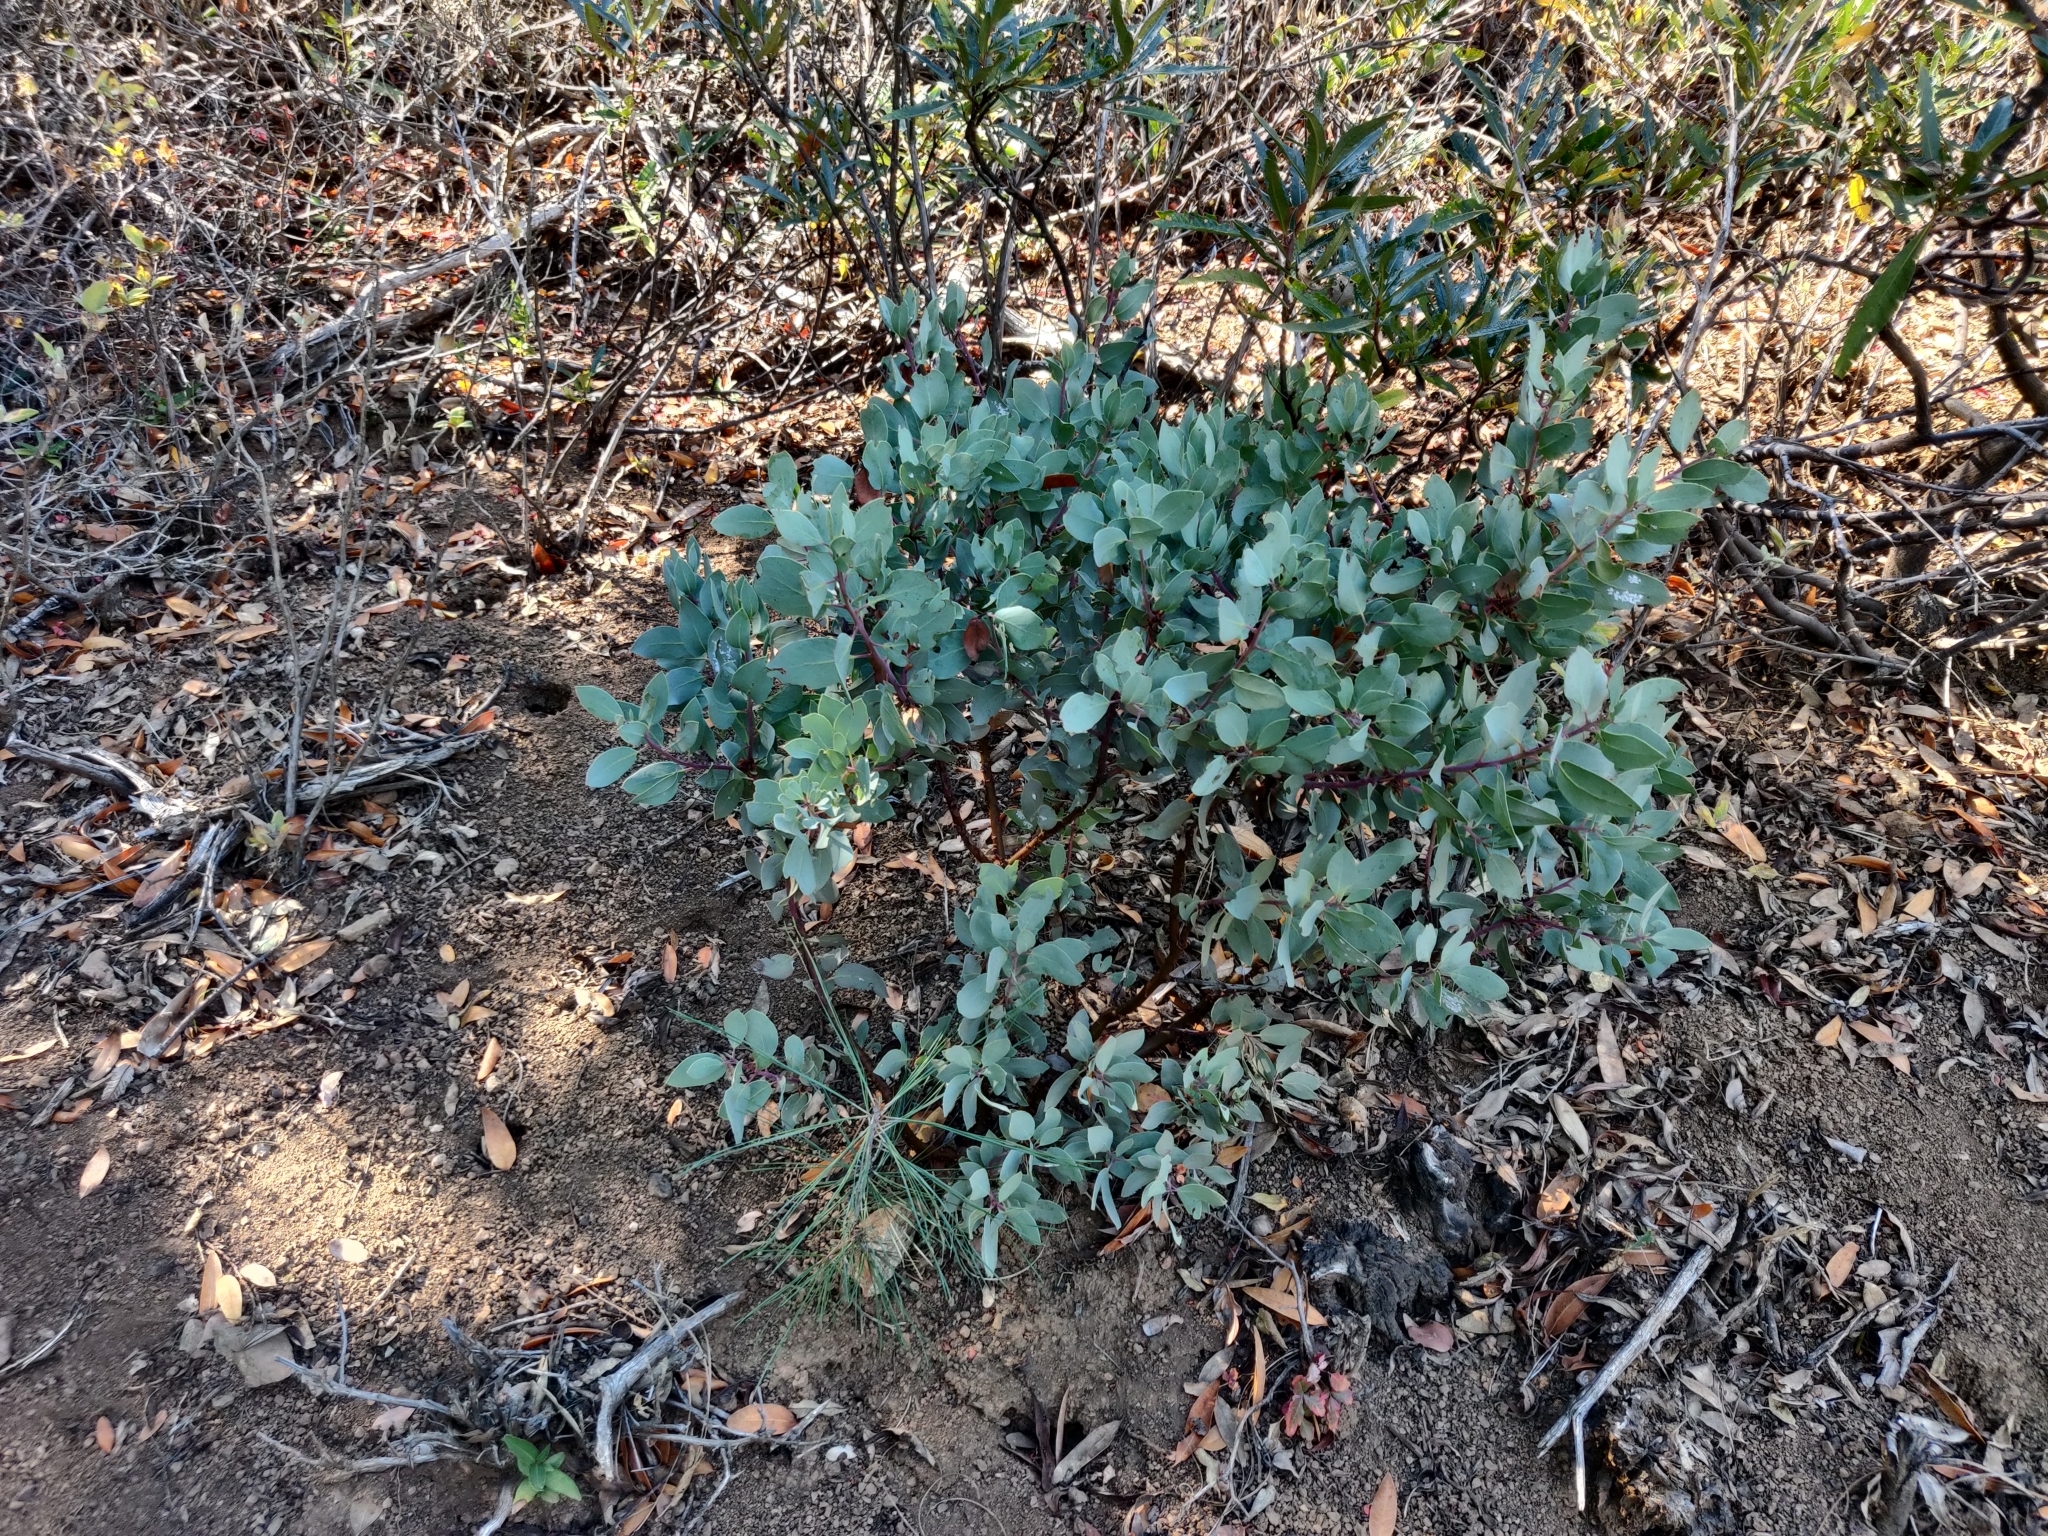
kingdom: Plantae
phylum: Tracheophyta
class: Magnoliopsida
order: Ericales
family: Ericaceae
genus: Arctostaphylos
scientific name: Arctostaphylos glauca
